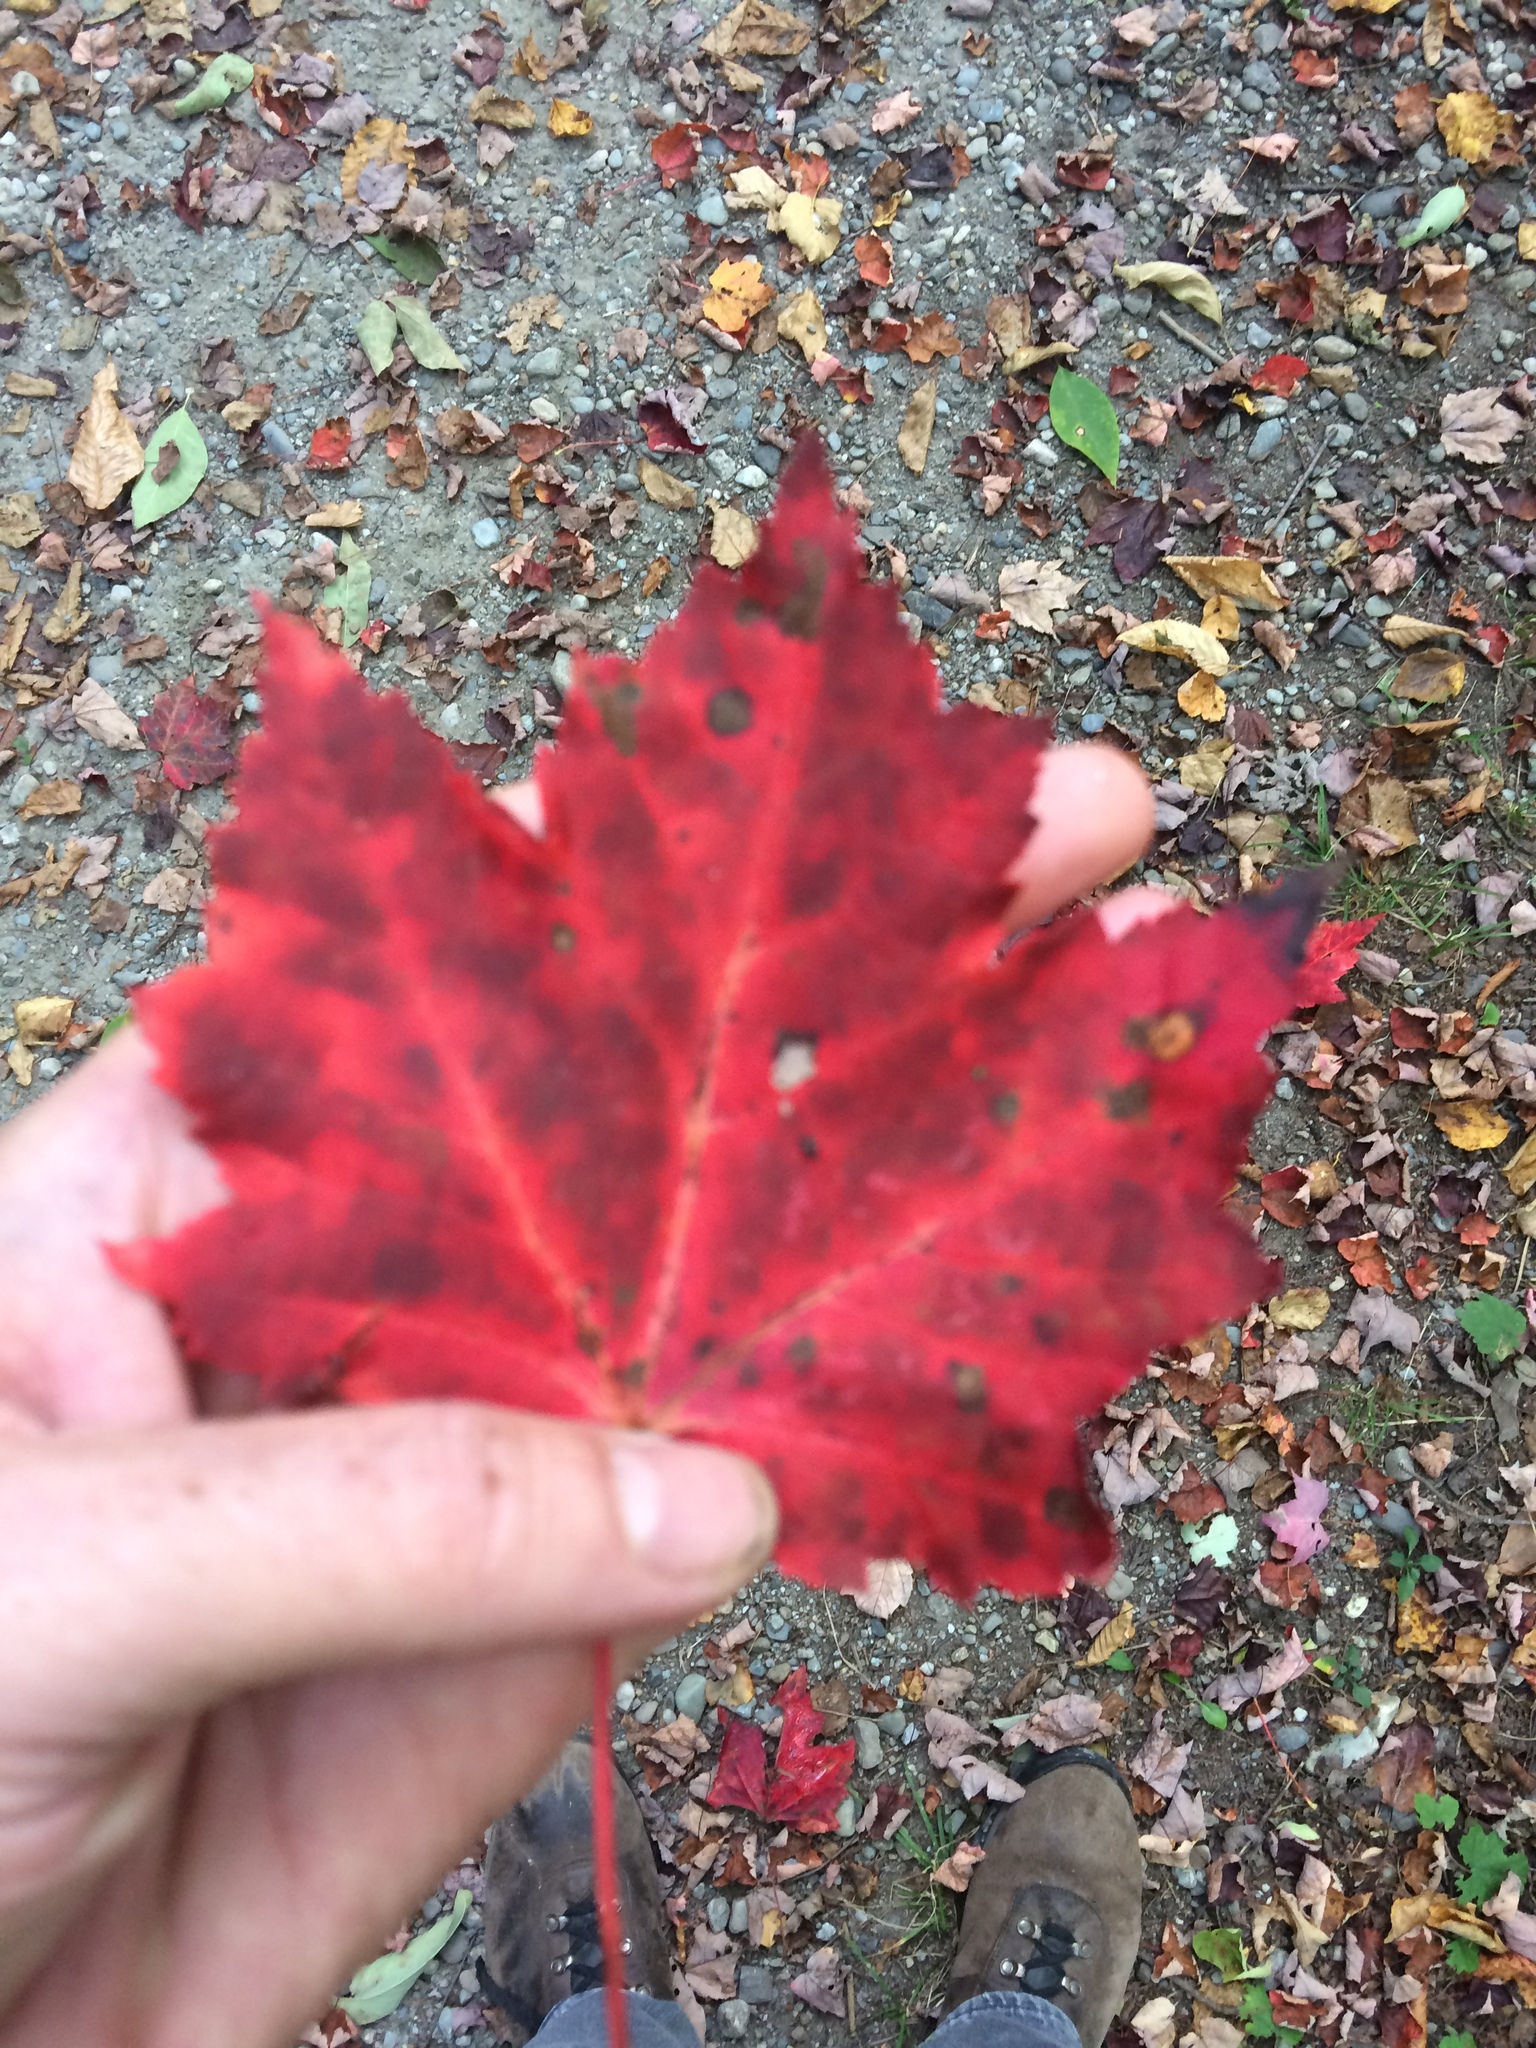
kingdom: Plantae
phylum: Tracheophyta
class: Magnoliopsida
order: Sapindales
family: Sapindaceae
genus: Acer
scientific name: Acer rubrum
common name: Red maple
